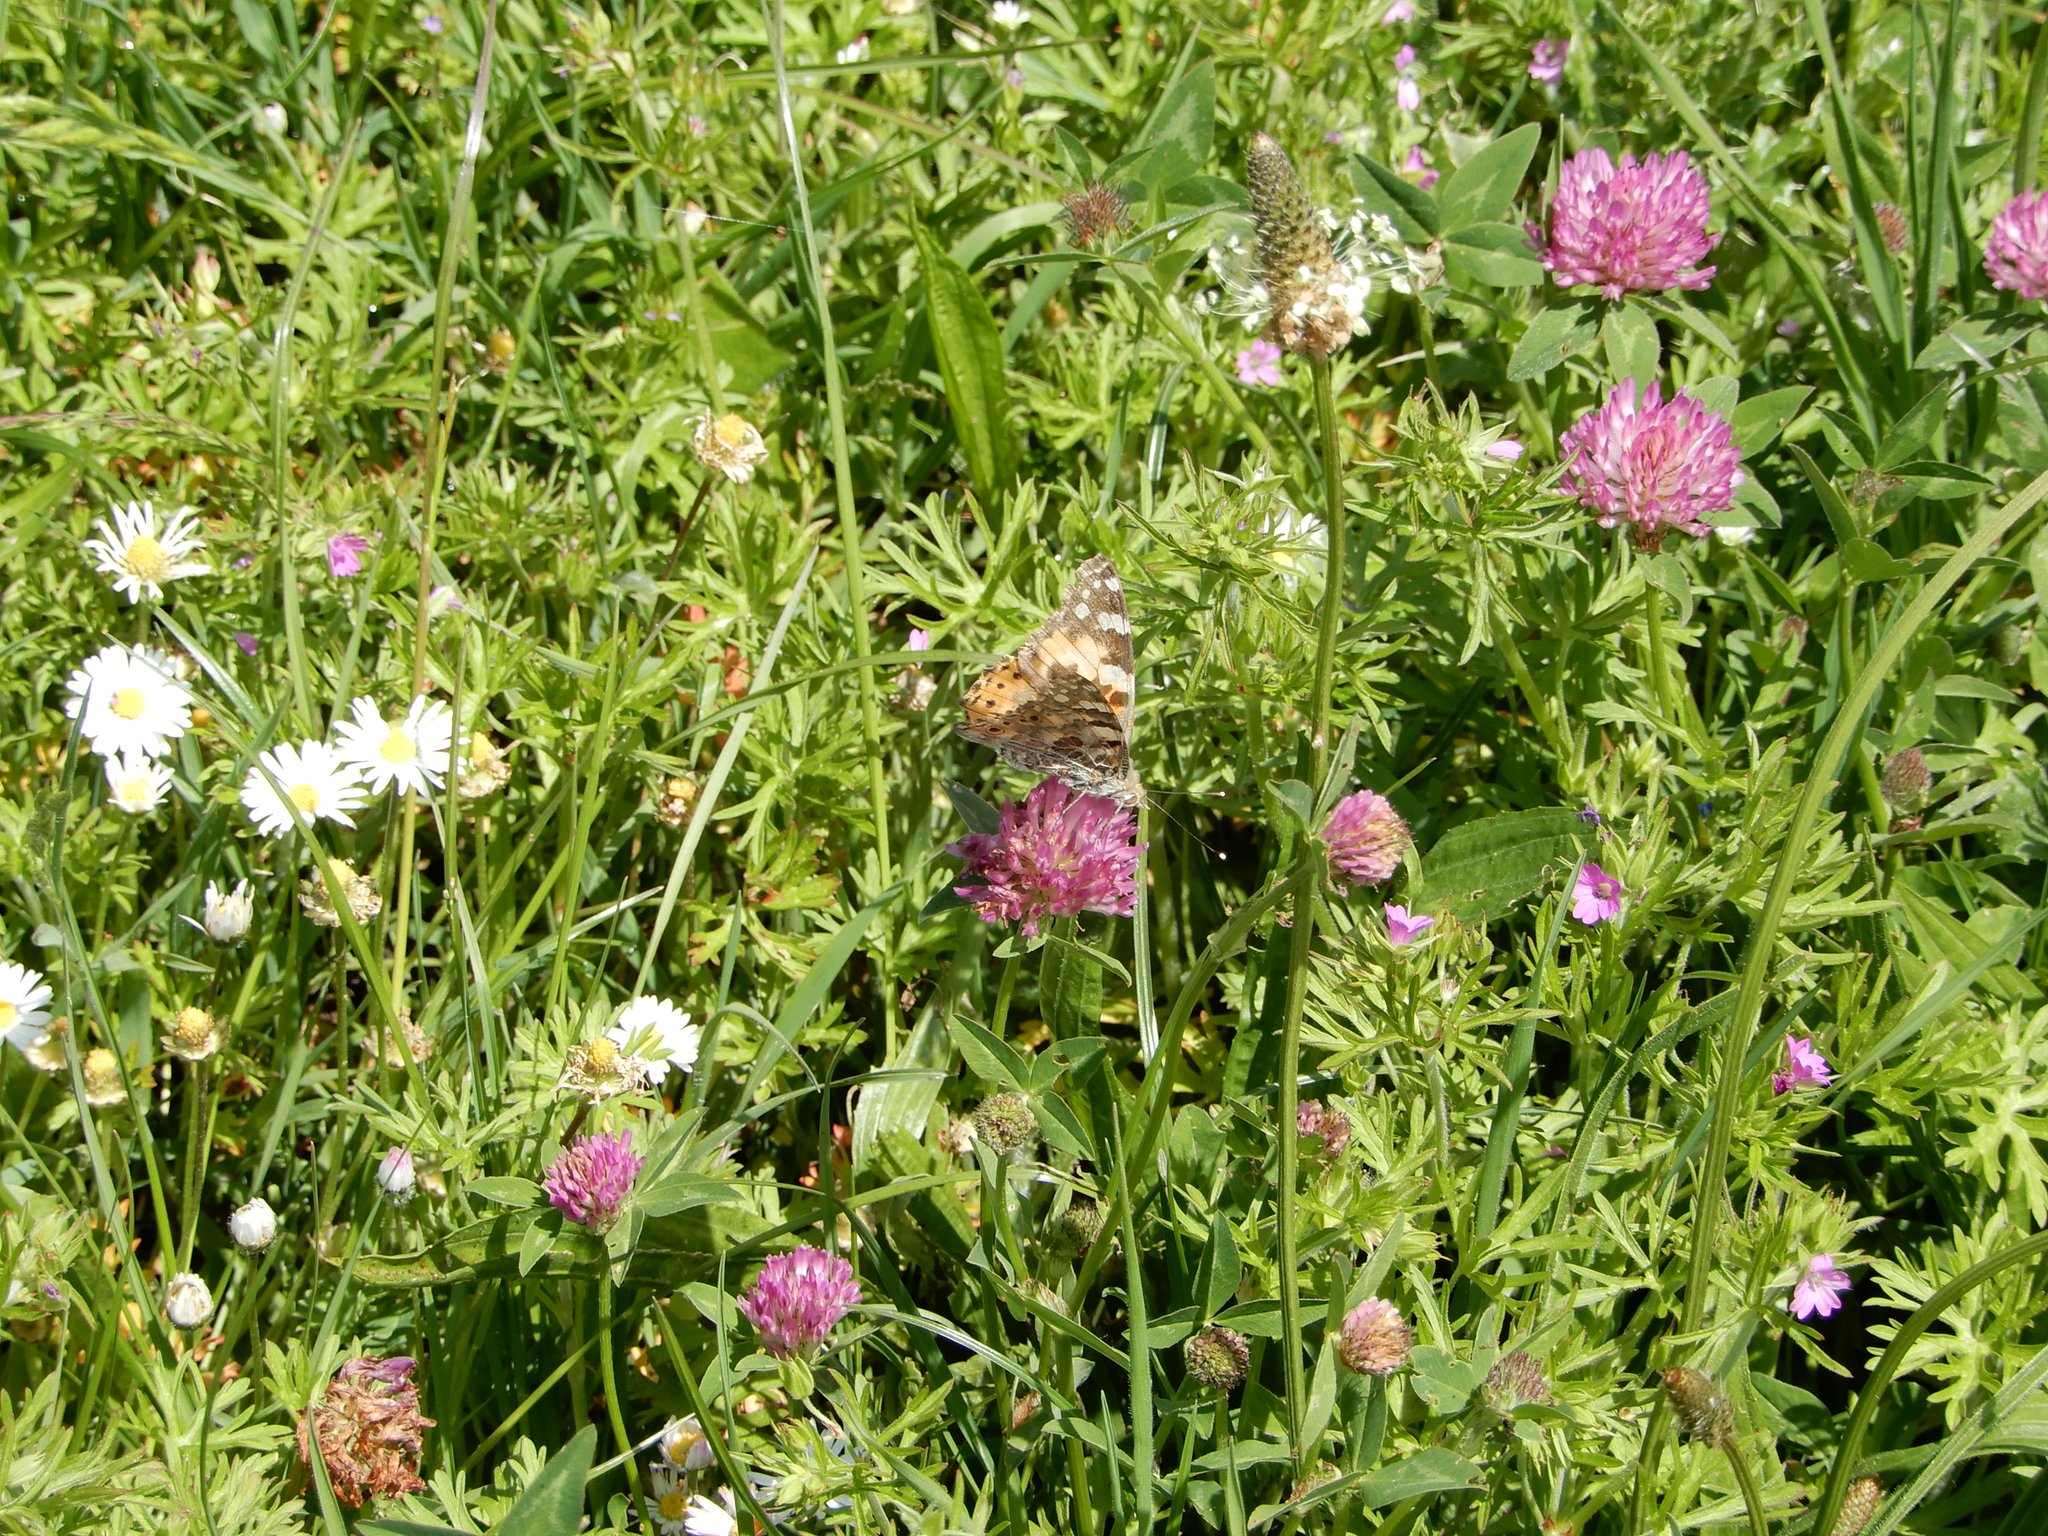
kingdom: Animalia
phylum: Arthropoda
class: Insecta
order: Lepidoptera
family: Nymphalidae
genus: Vanessa
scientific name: Vanessa cardui
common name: Painted lady
